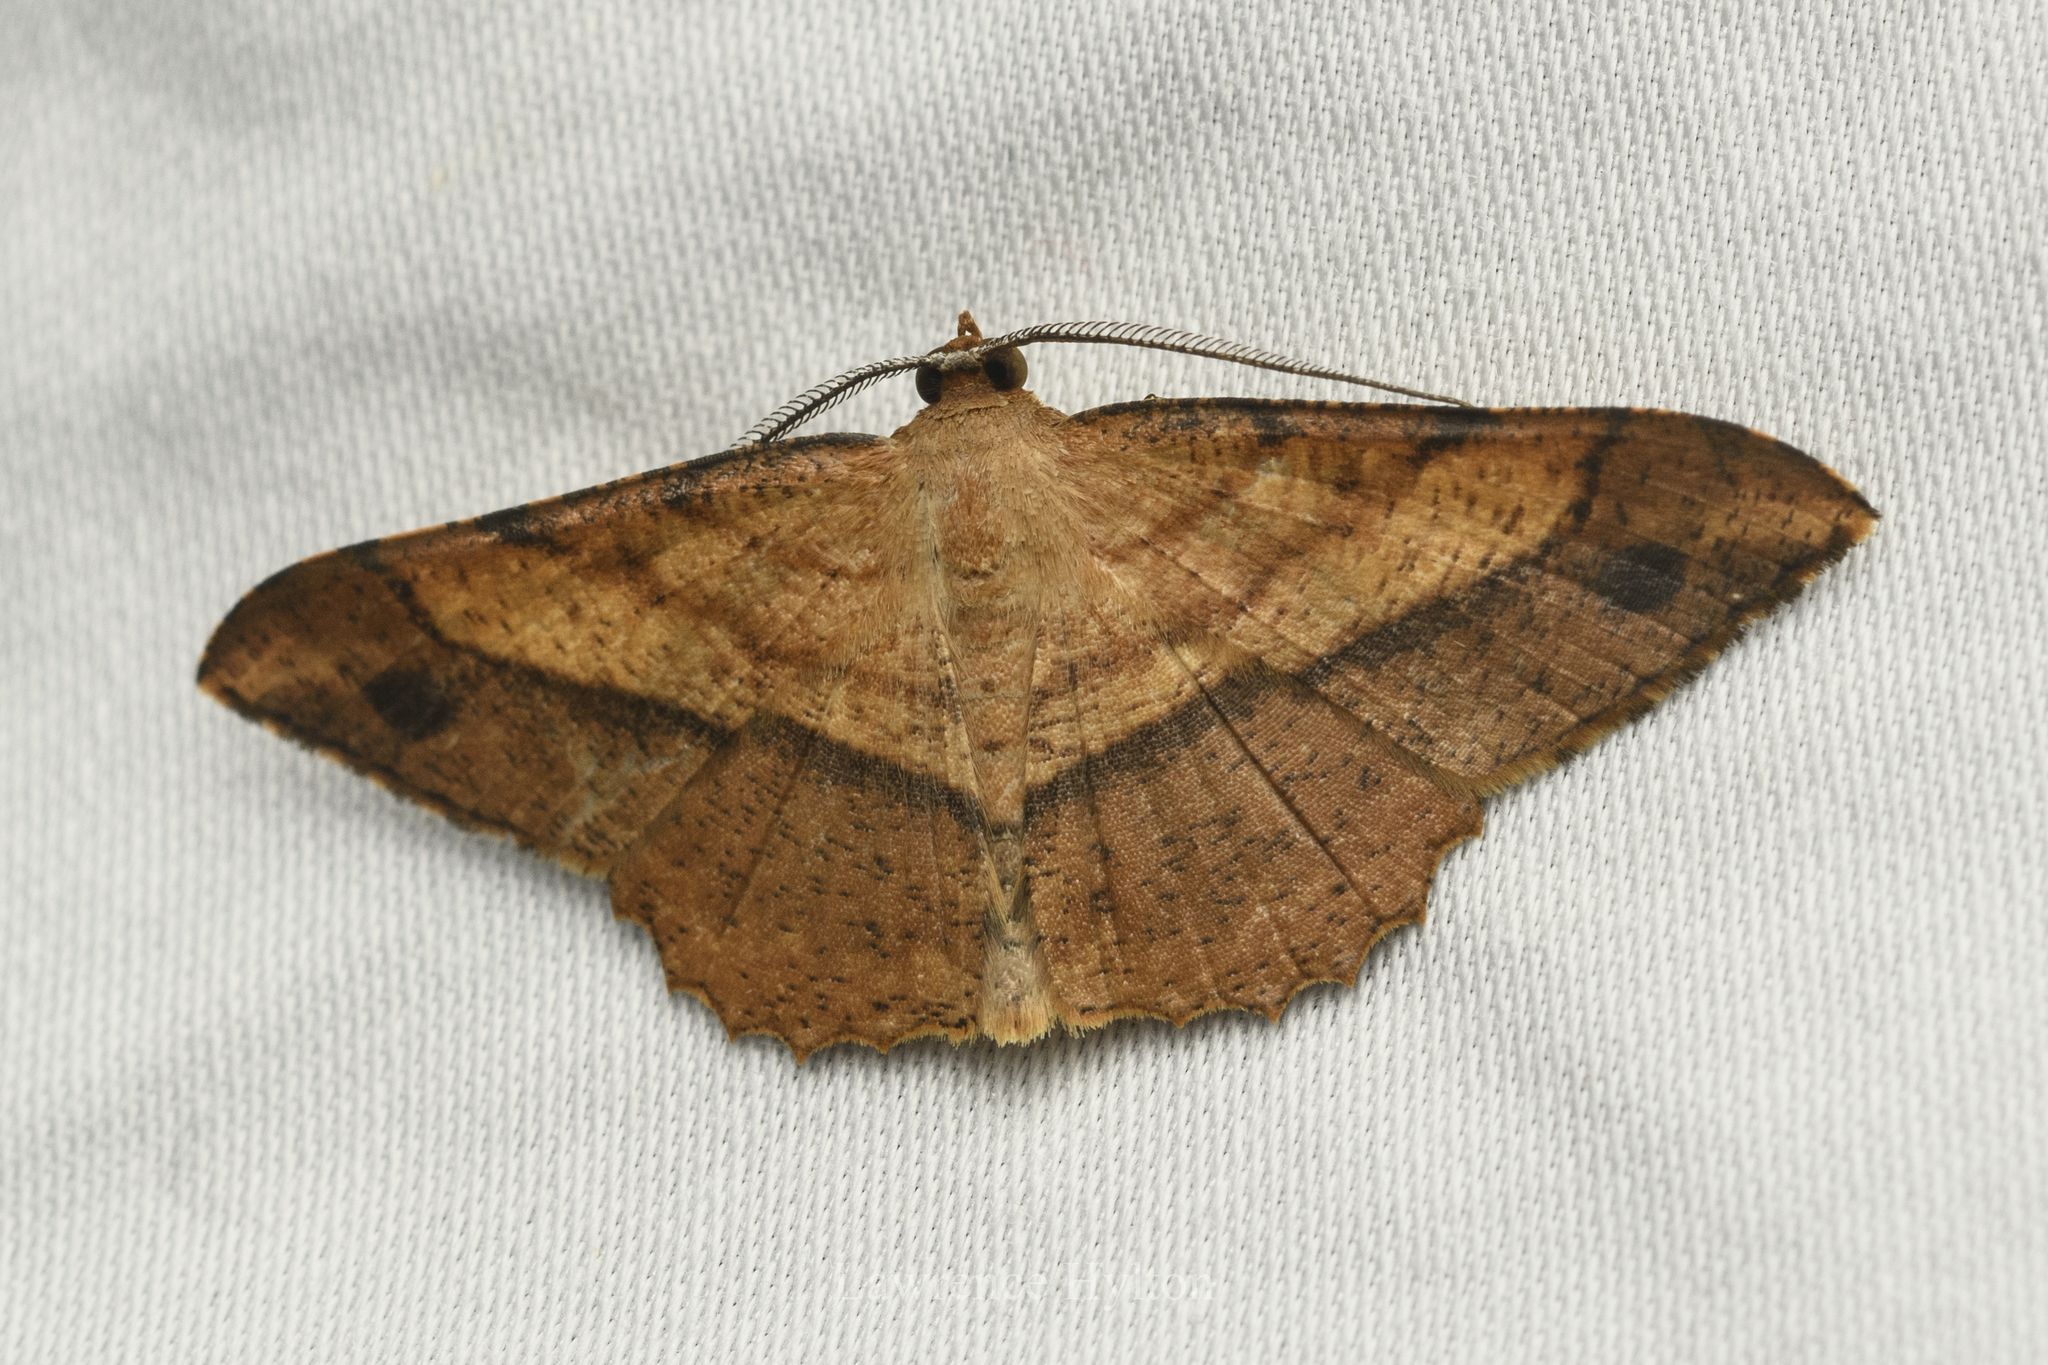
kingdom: Animalia
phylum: Arthropoda
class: Insecta
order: Lepidoptera
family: Geometridae
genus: Pseudonadagara
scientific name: Pseudonadagara semicolor
